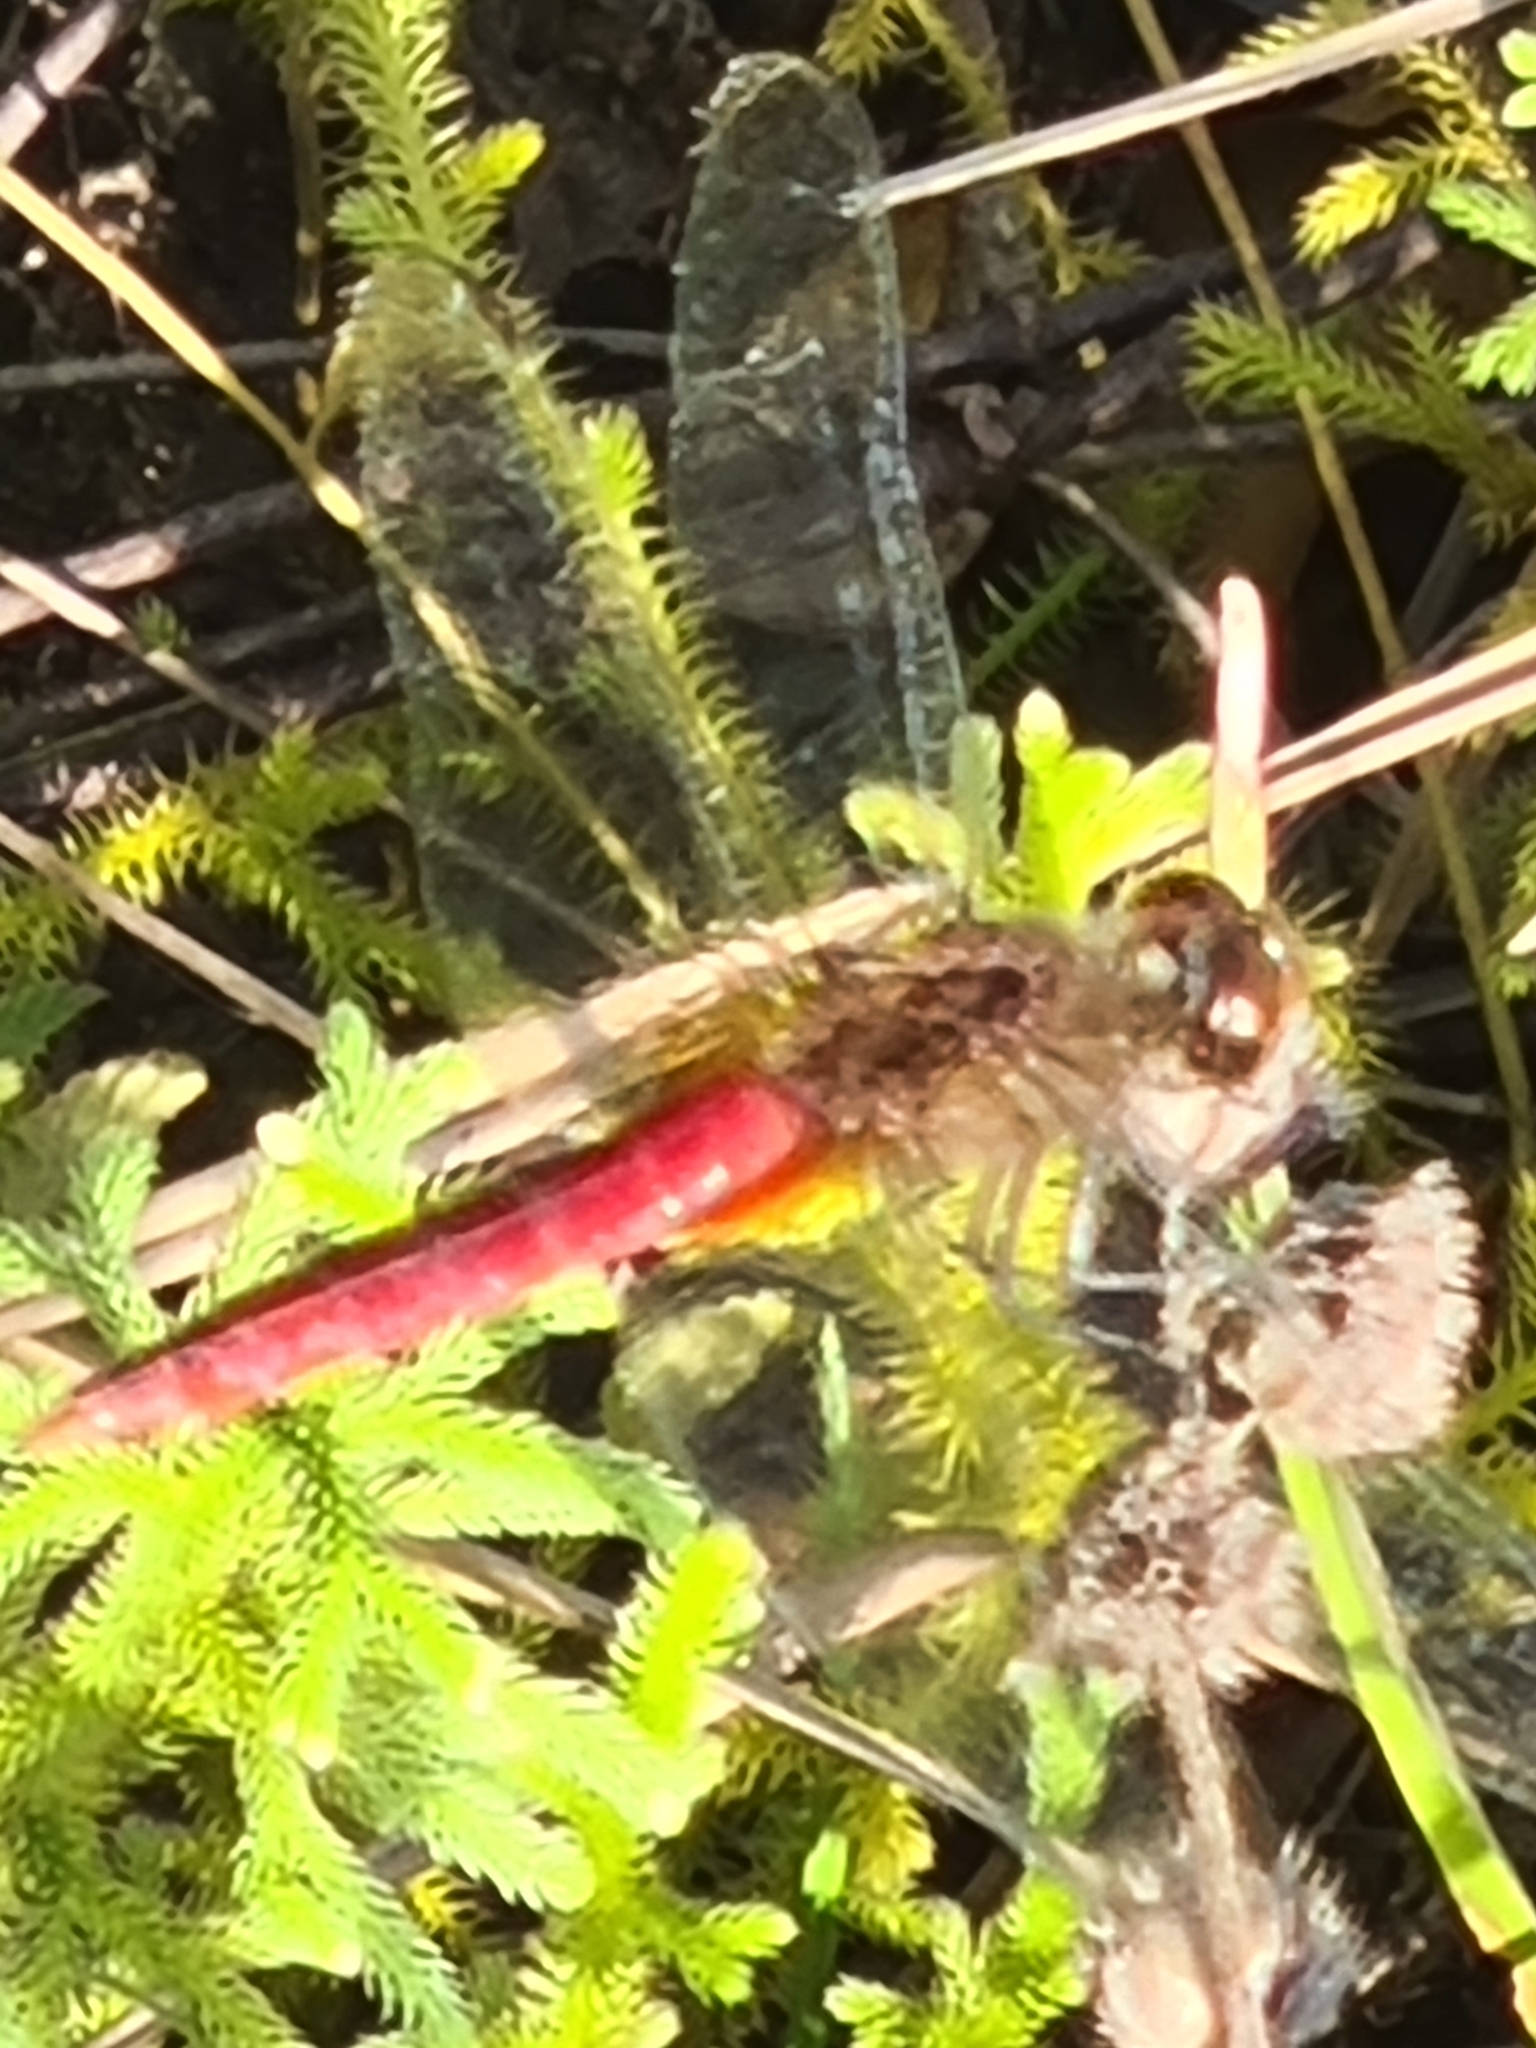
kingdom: Animalia
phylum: Arthropoda
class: Insecta
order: Odonata
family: Libellulidae
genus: Brachymesia
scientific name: Brachymesia furcata
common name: Red-taled pennant
